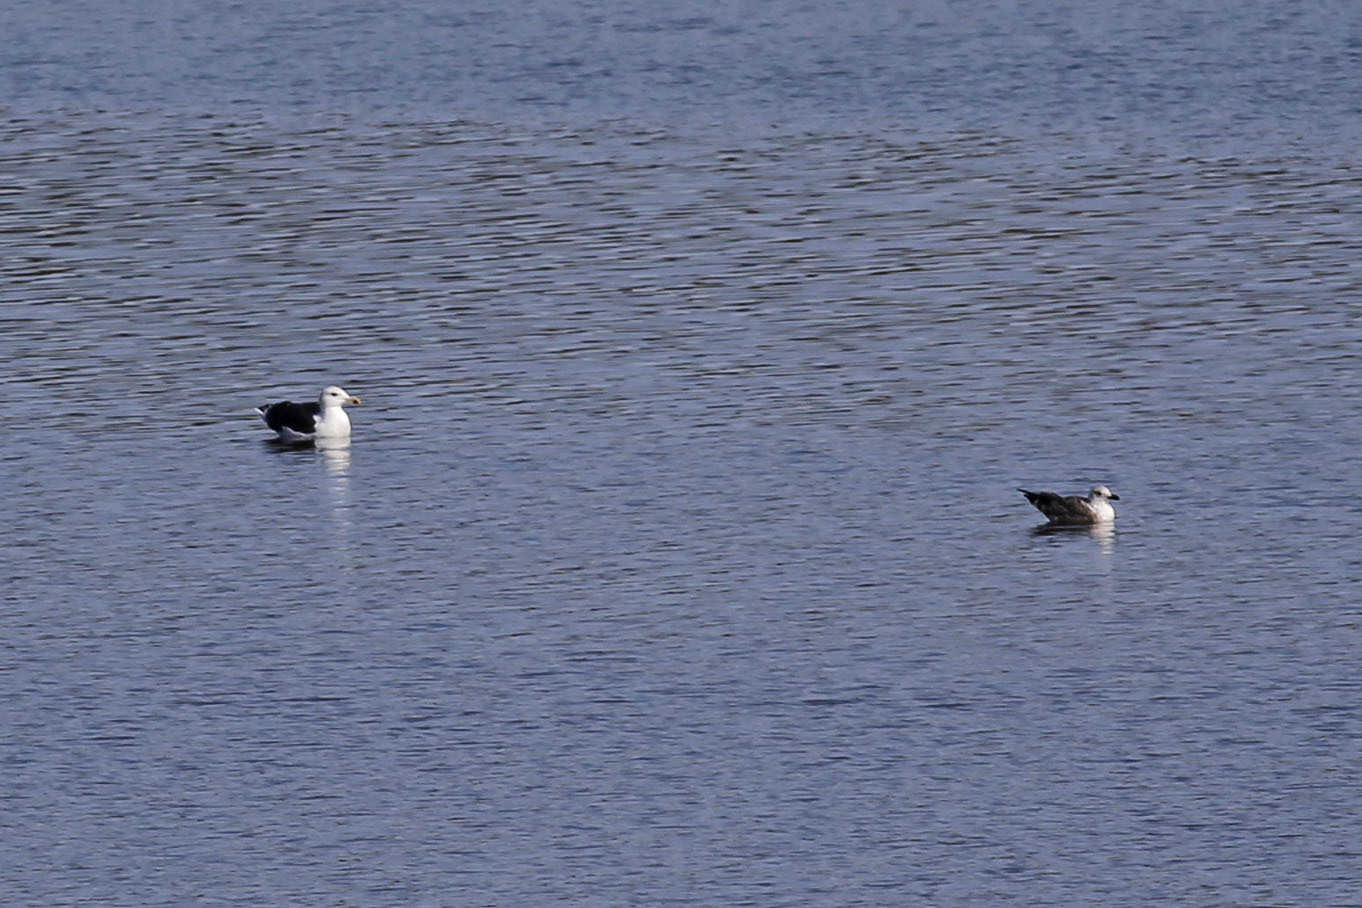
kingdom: Animalia
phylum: Chordata
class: Aves
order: Charadriiformes
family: Laridae
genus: Larus
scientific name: Larus marinus
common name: Great black-backed gull
